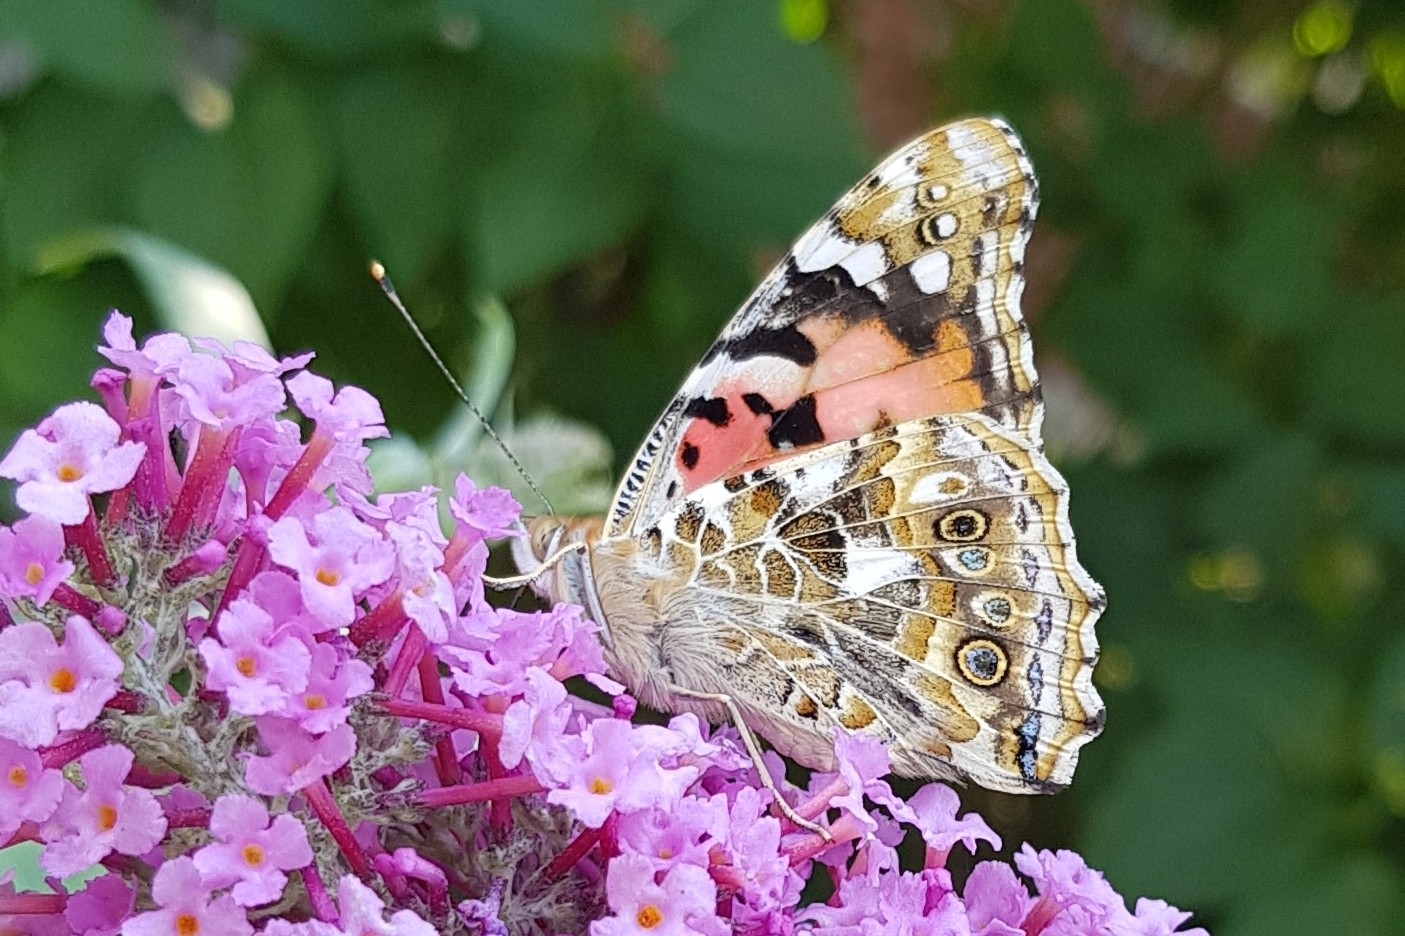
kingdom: Animalia
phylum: Arthropoda
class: Insecta
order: Lepidoptera
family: Nymphalidae
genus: Vanessa
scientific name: Vanessa cardui
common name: Painted lady
